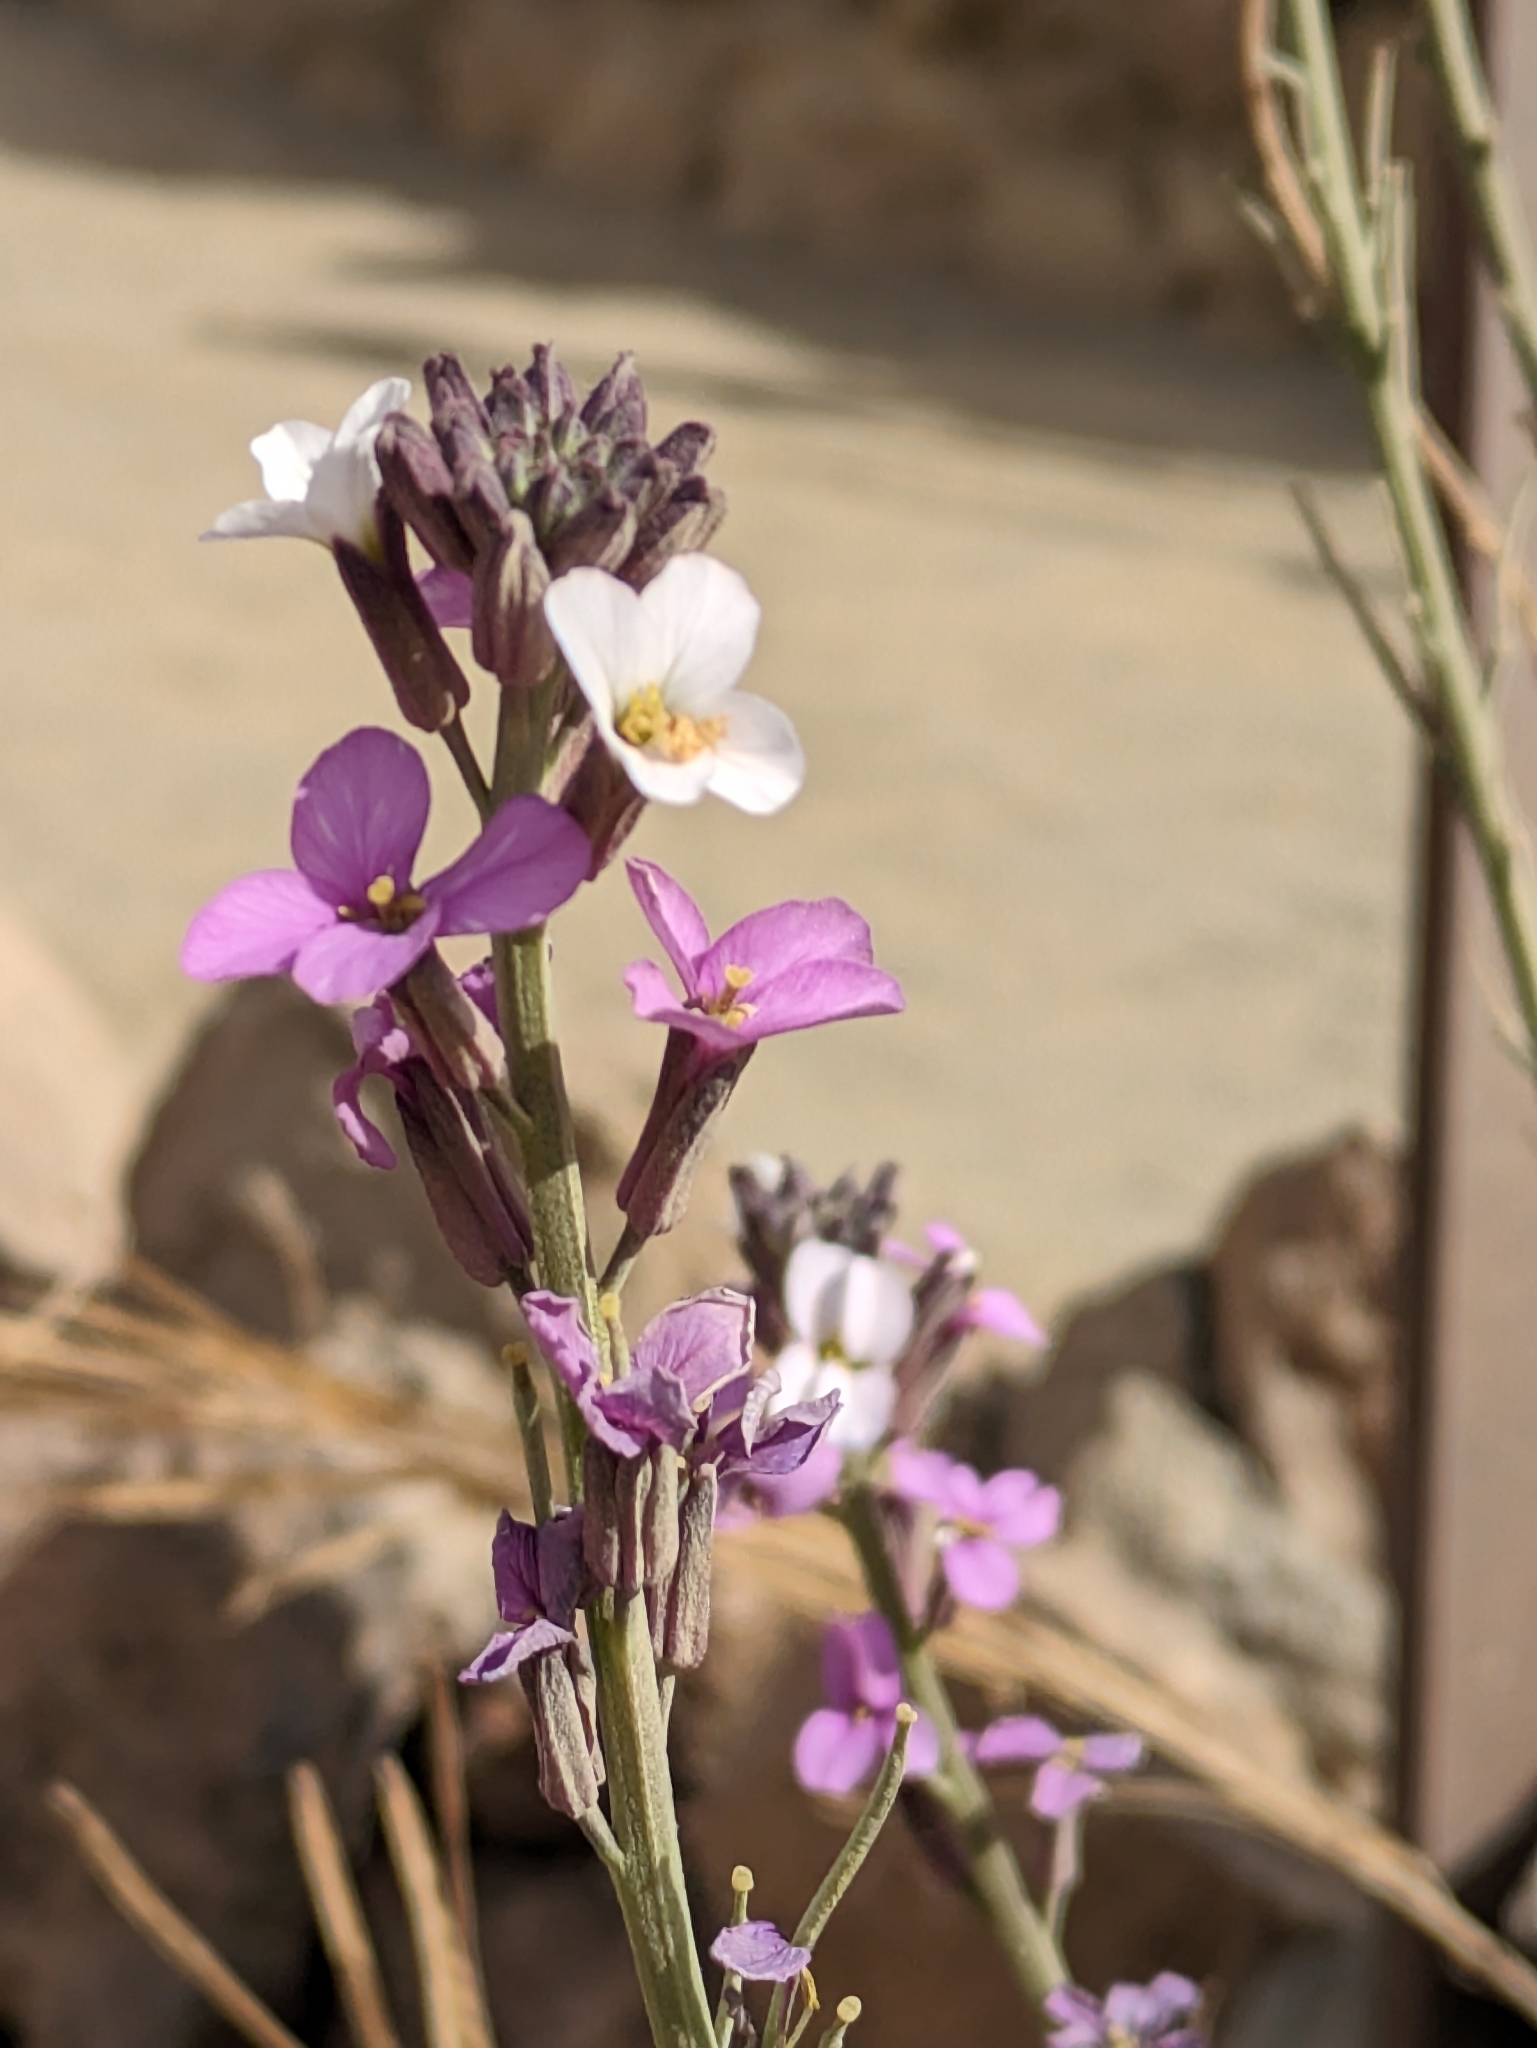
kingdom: Plantae
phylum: Tracheophyta
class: Magnoliopsida
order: Brassicales
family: Brassicaceae
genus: Erysimum
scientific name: Erysimum scoparium
